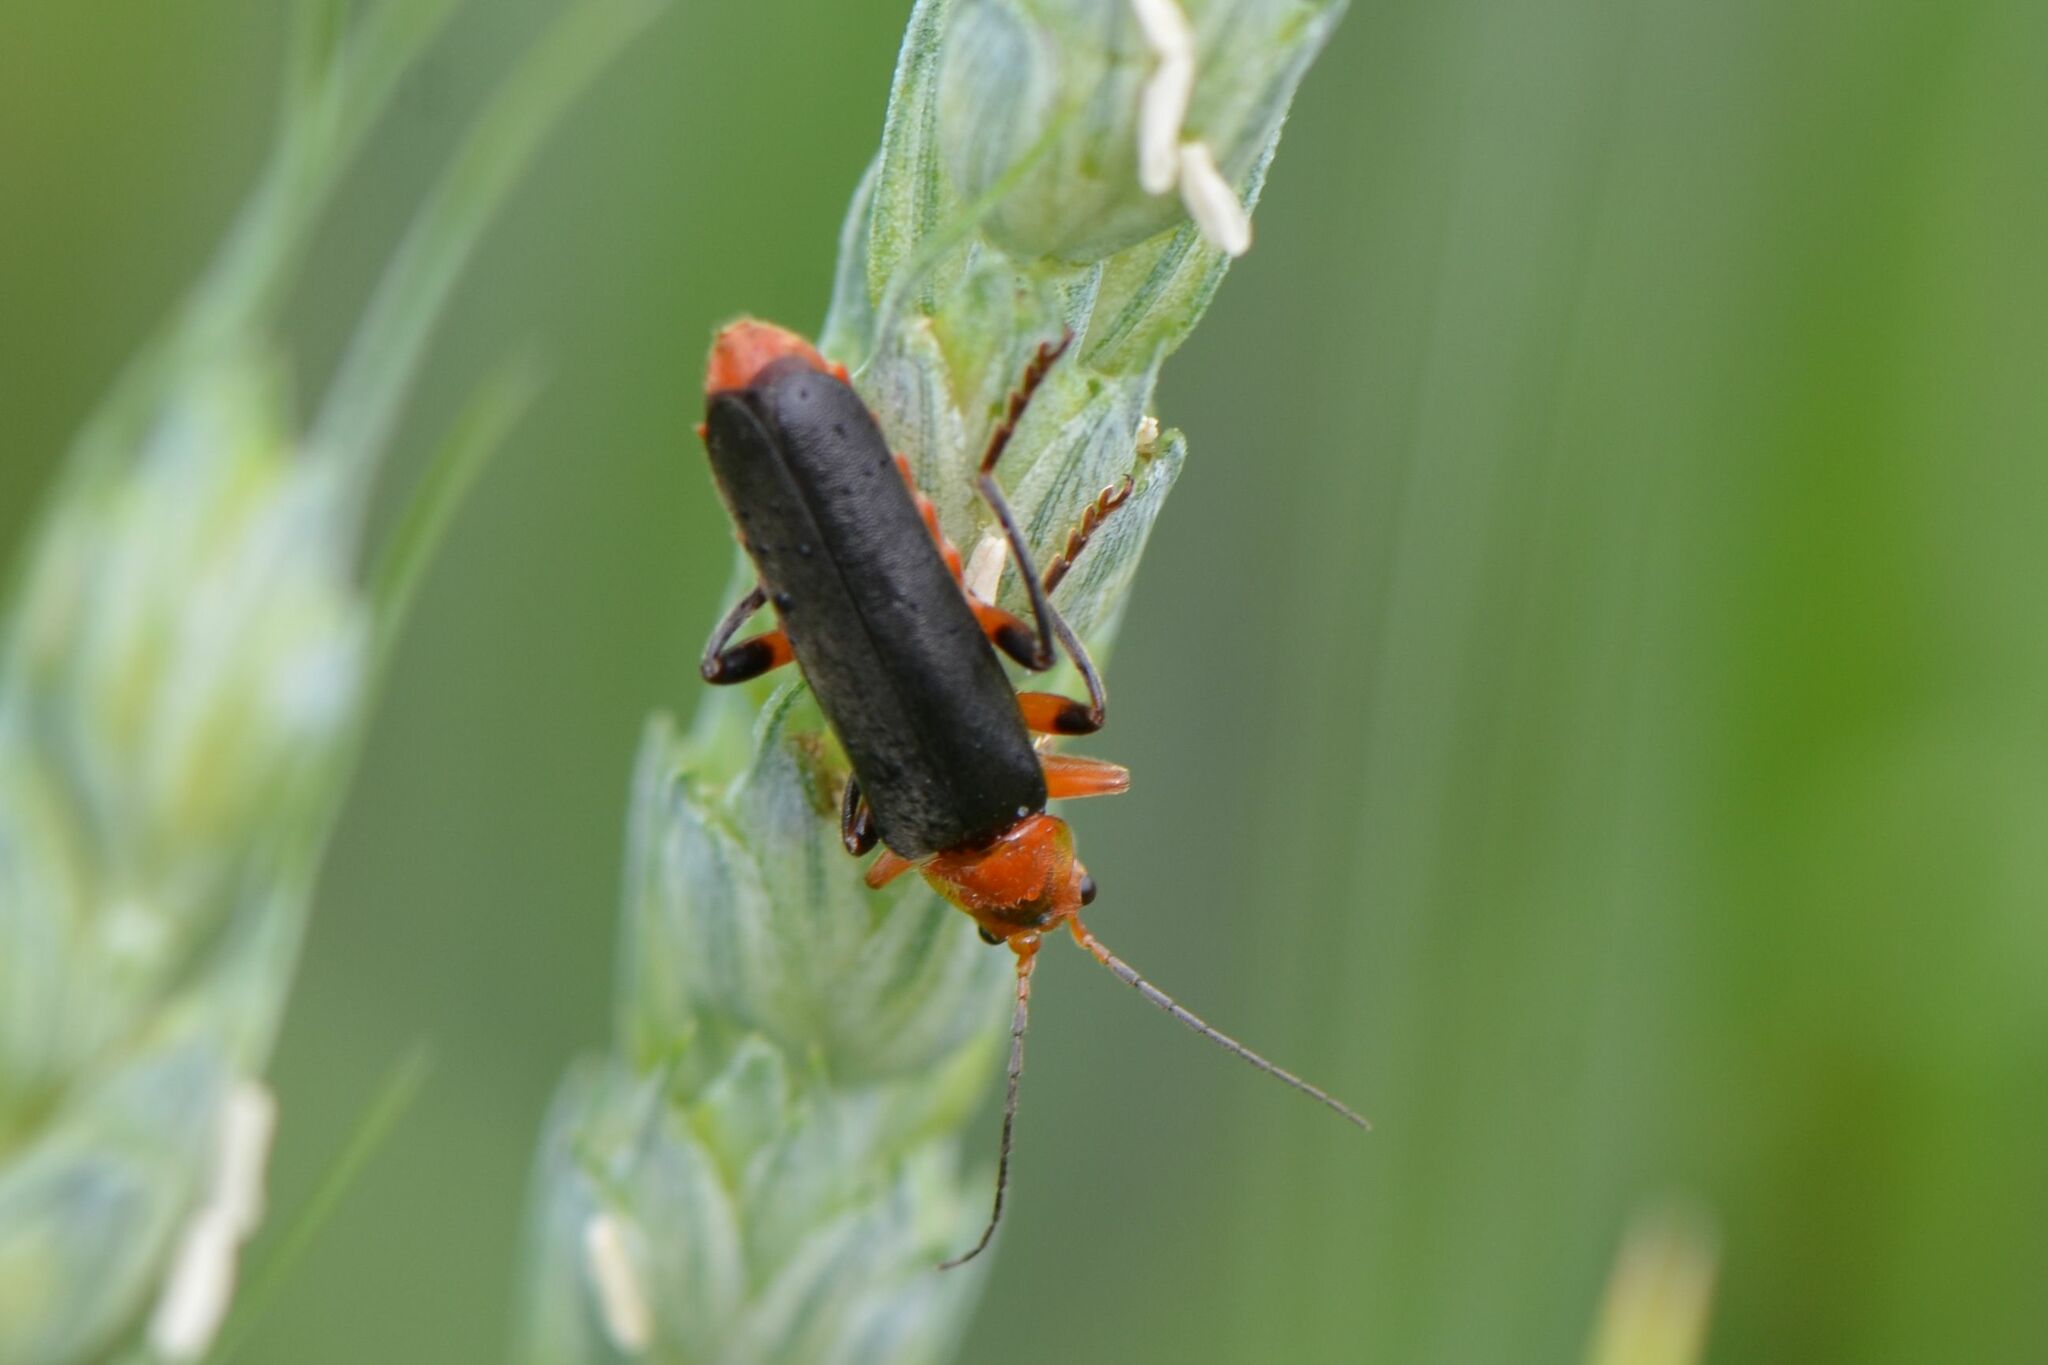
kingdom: Animalia
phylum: Arthropoda
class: Insecta
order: Coleoptera
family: Cantharidae
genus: Cantharis
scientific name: Cantharis livida
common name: Livid soldier beetle
